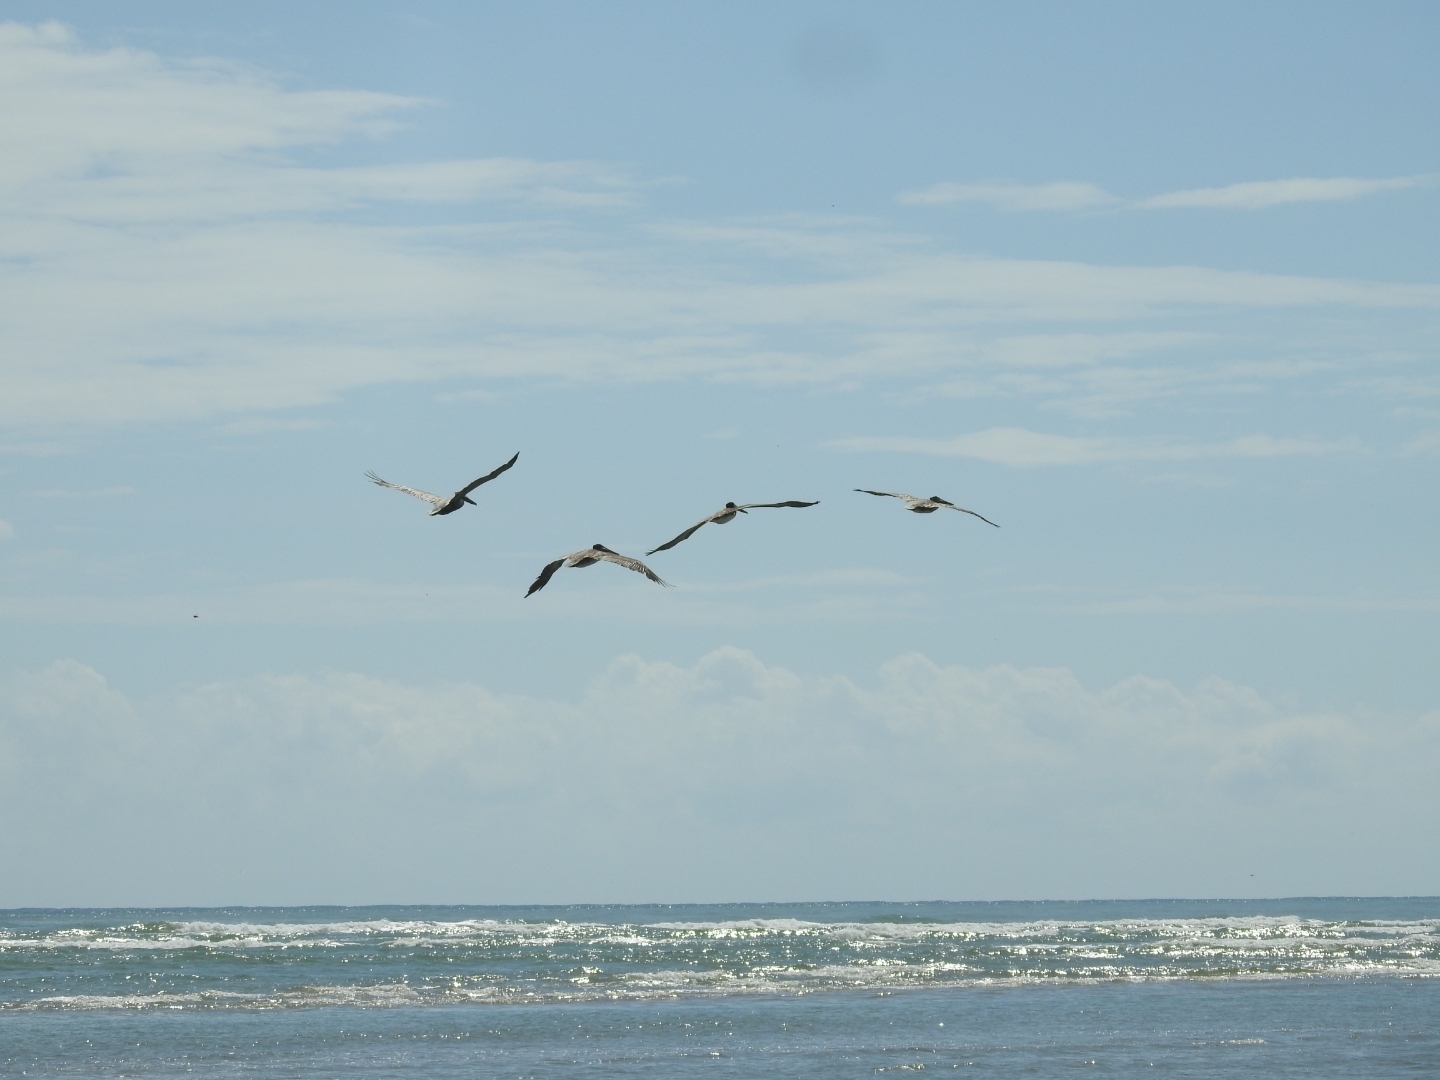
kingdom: Animalia
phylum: Chordata
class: Aves
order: Pelecaniformes
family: Pelecanidae
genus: Pelecanus
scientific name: Pelecanus occidentalis
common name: Brown pelican
